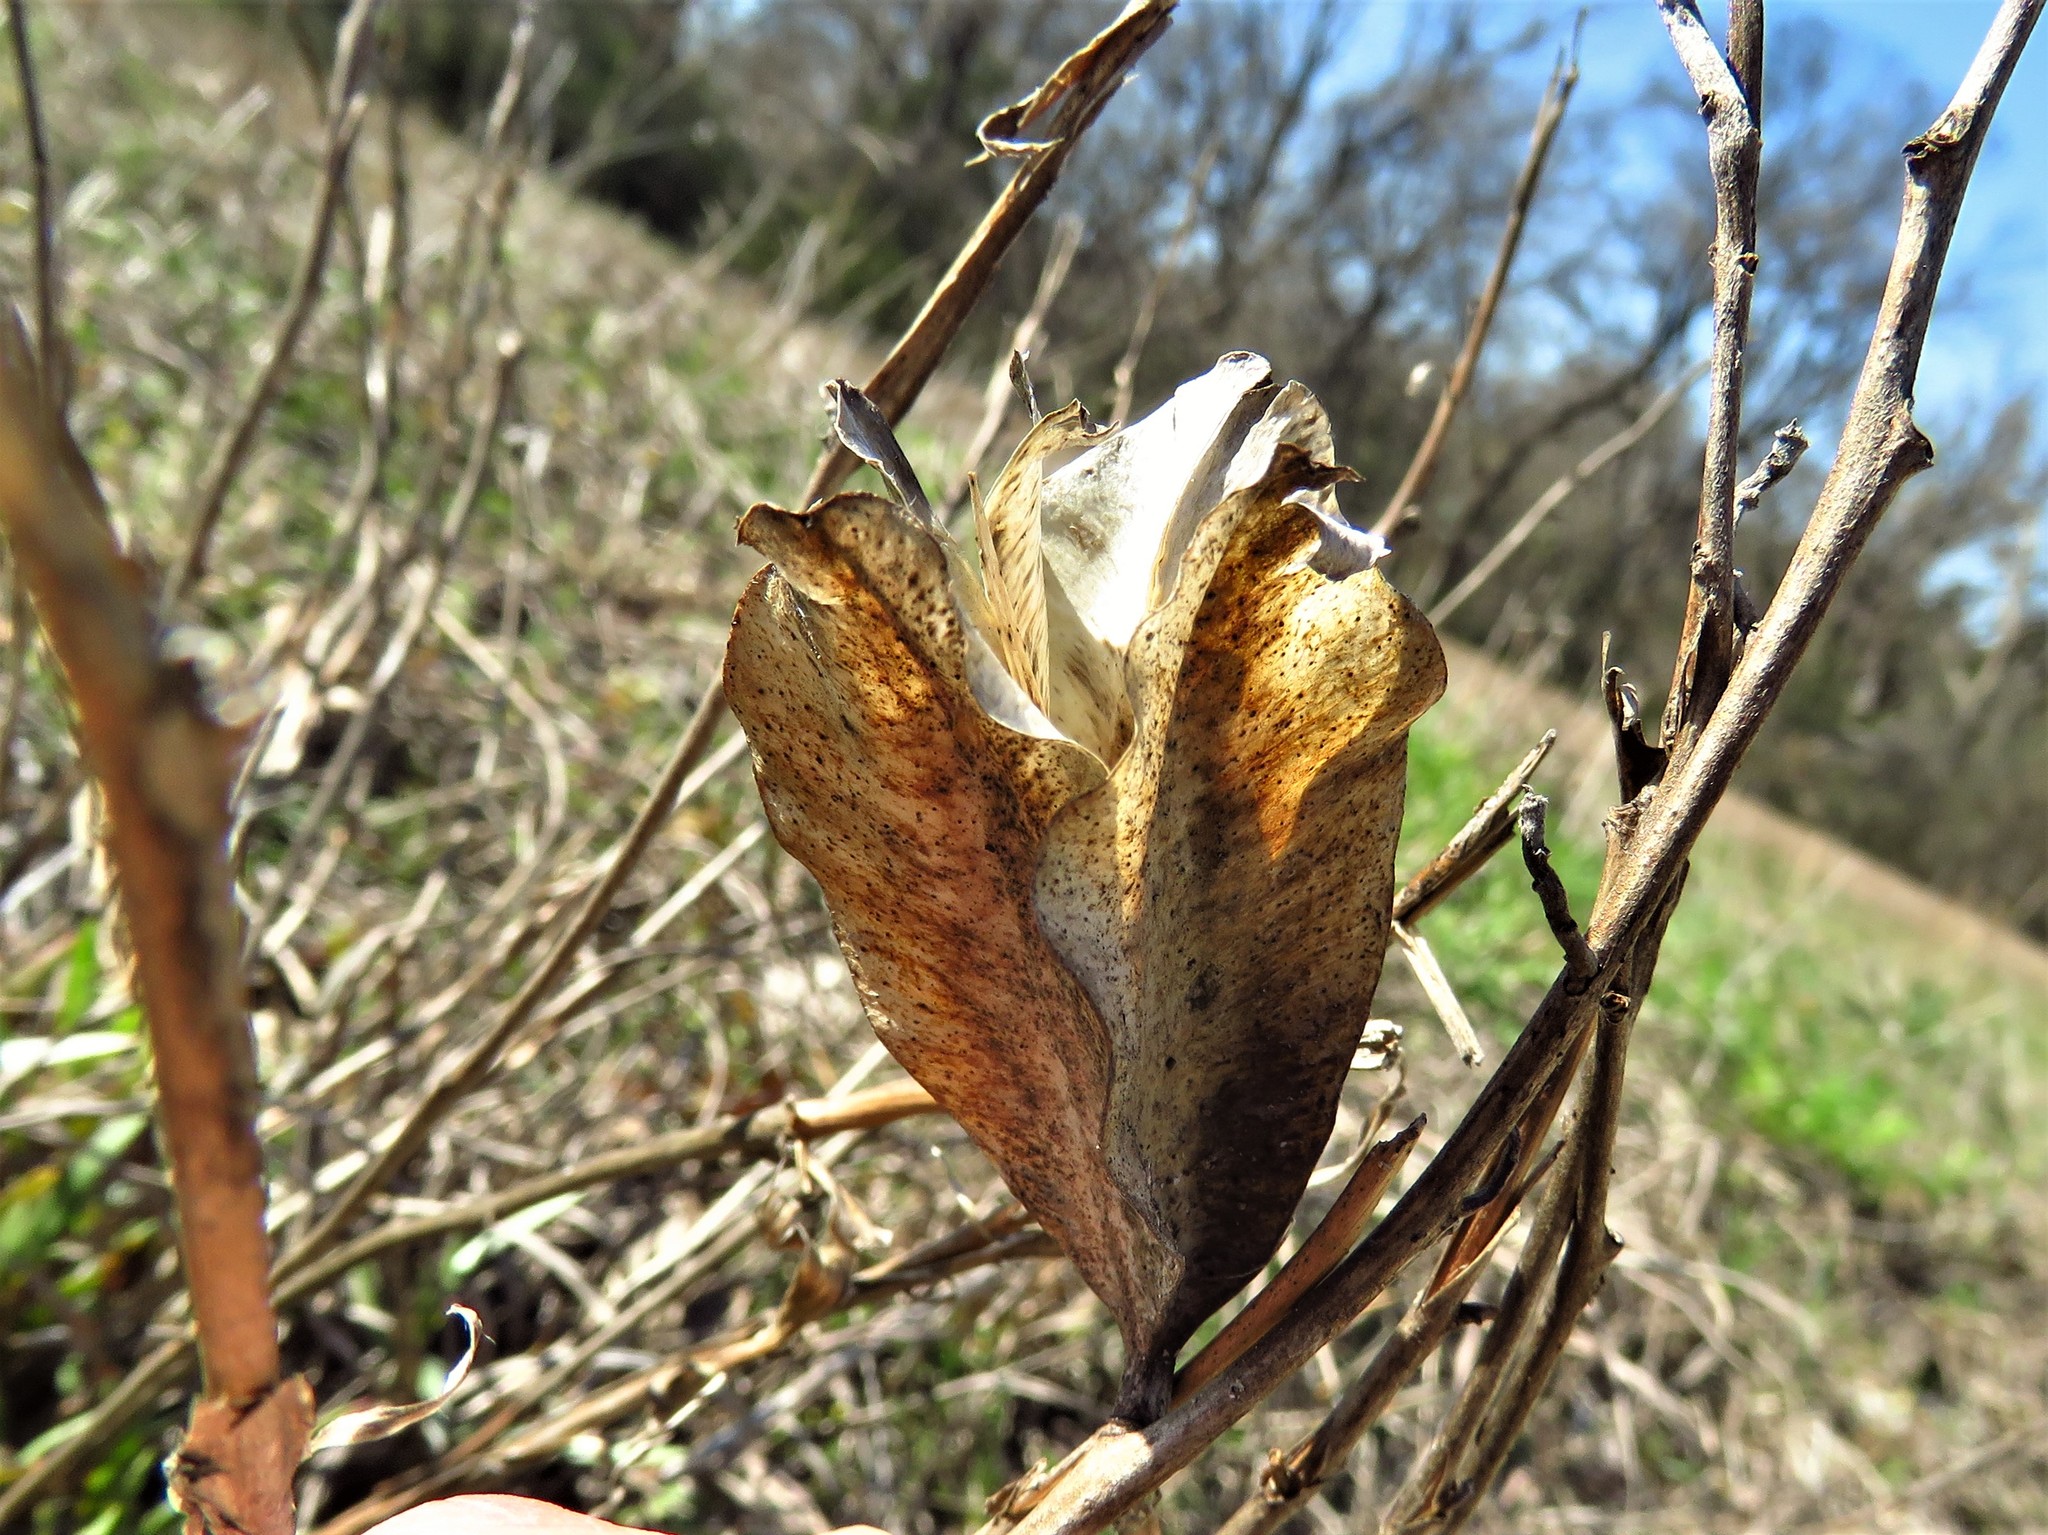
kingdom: Plantae
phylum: Tracheophyta
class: Magnoliopsida
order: Myrtales
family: Onagraceae
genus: Oenothera
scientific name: Oenothera macrocarpa
